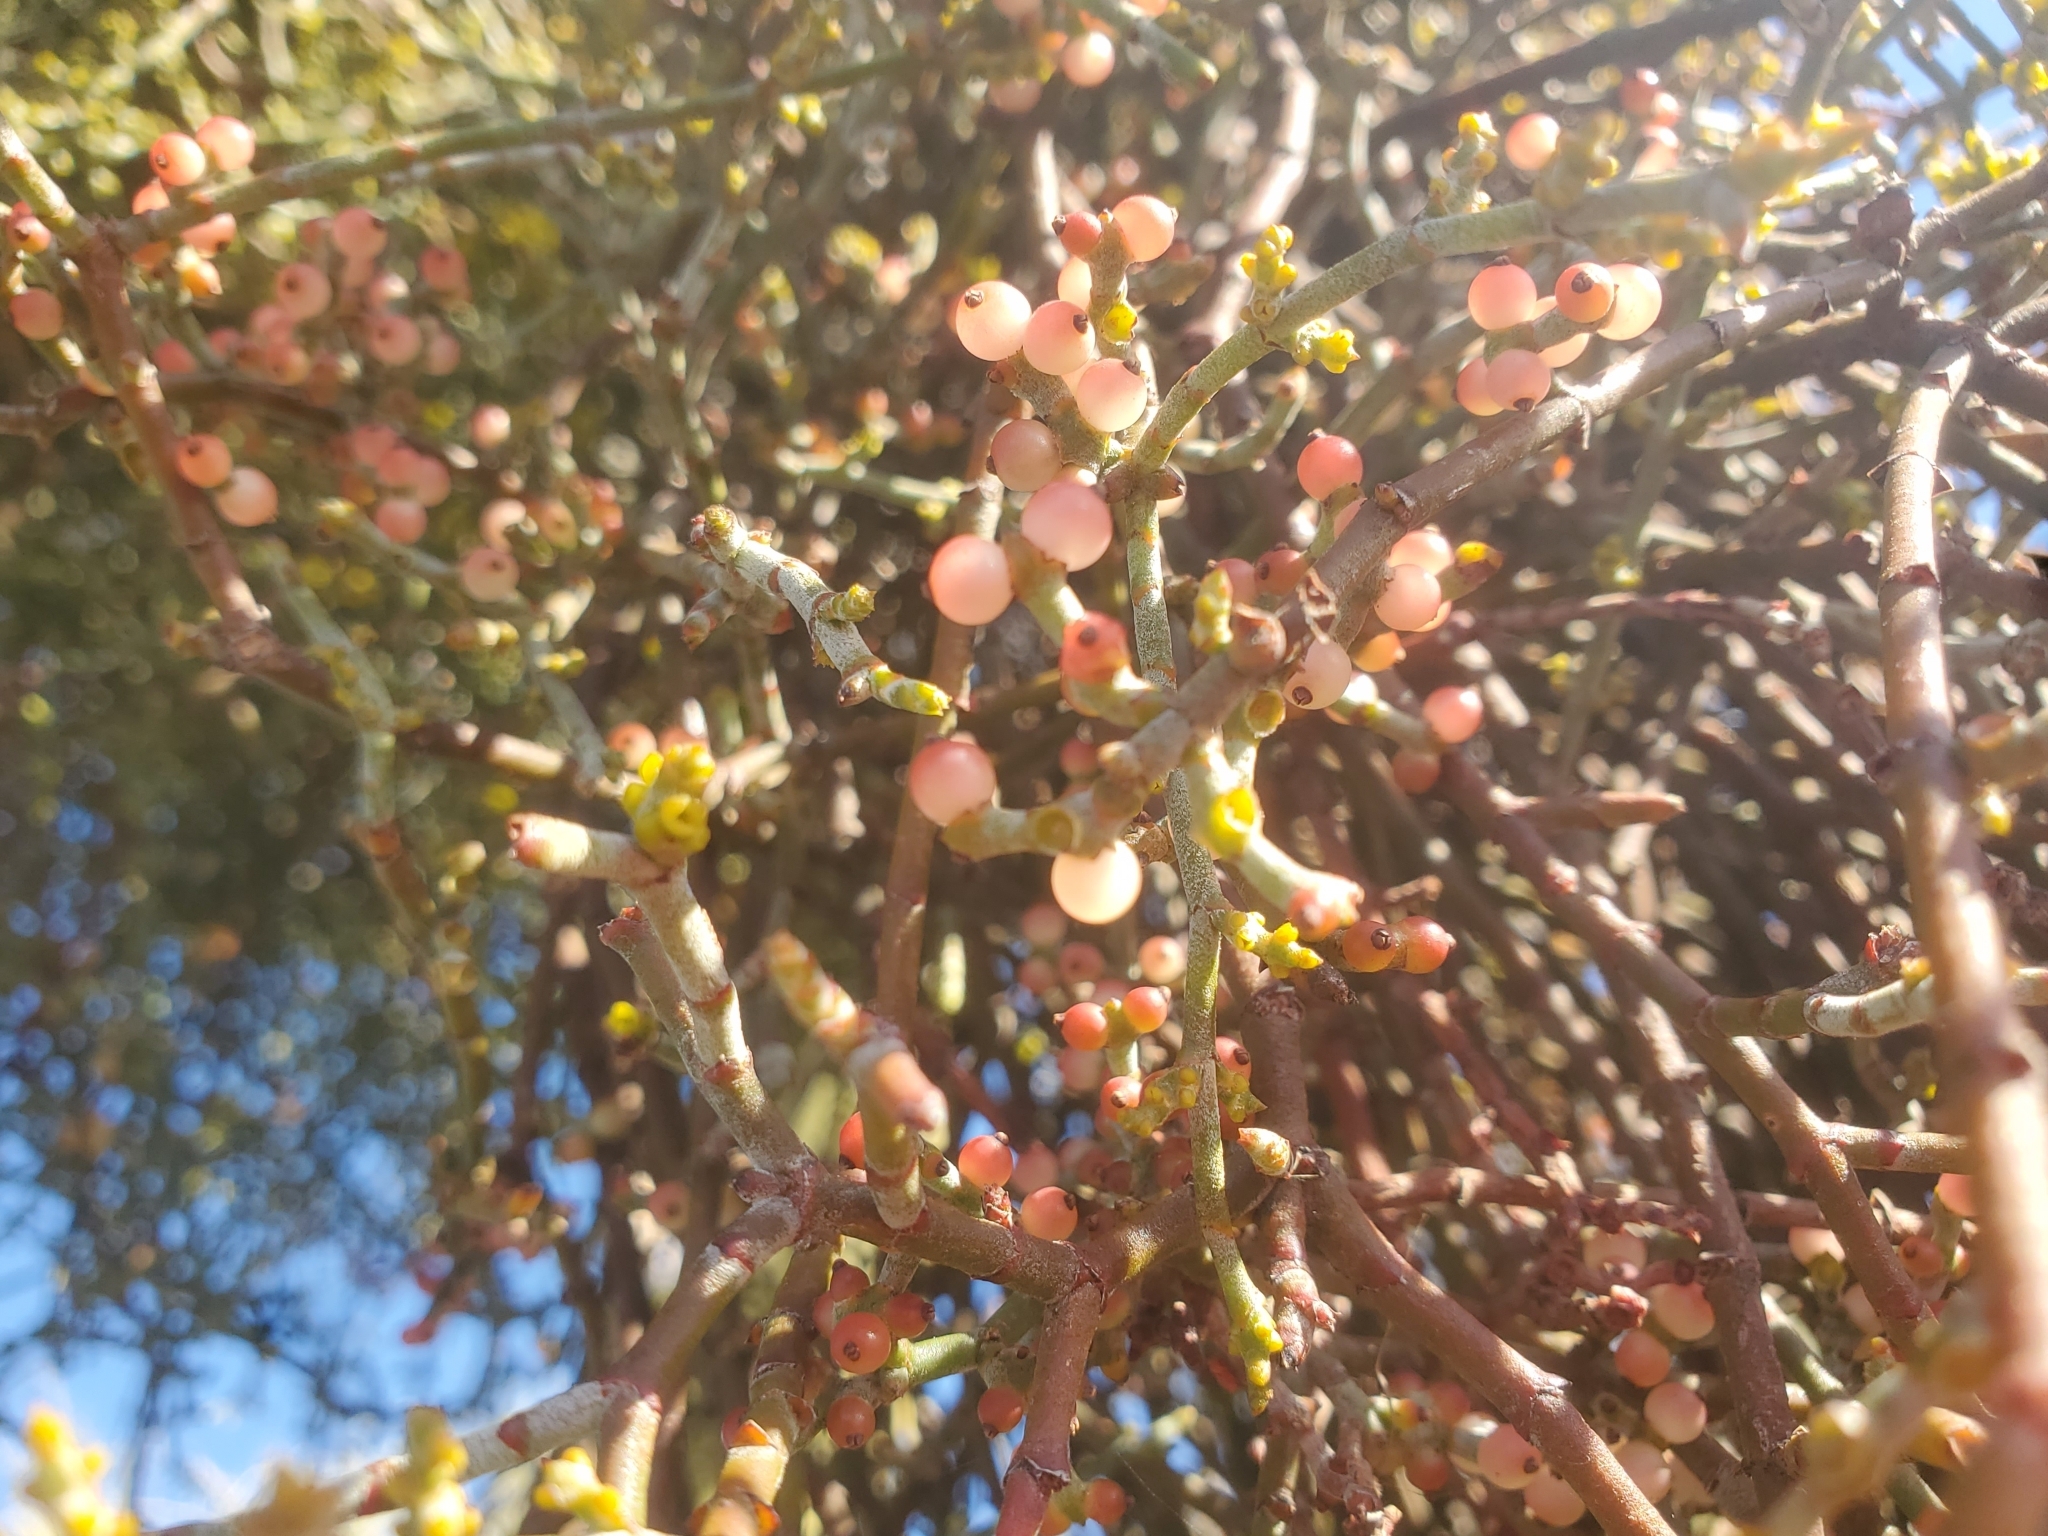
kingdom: Plantae
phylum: Tracheophyta
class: Magnoliopsida
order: Santalales
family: Viscaceae
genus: Phoradendron
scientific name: Phoradendron californicum
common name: Acacia mistletoe
